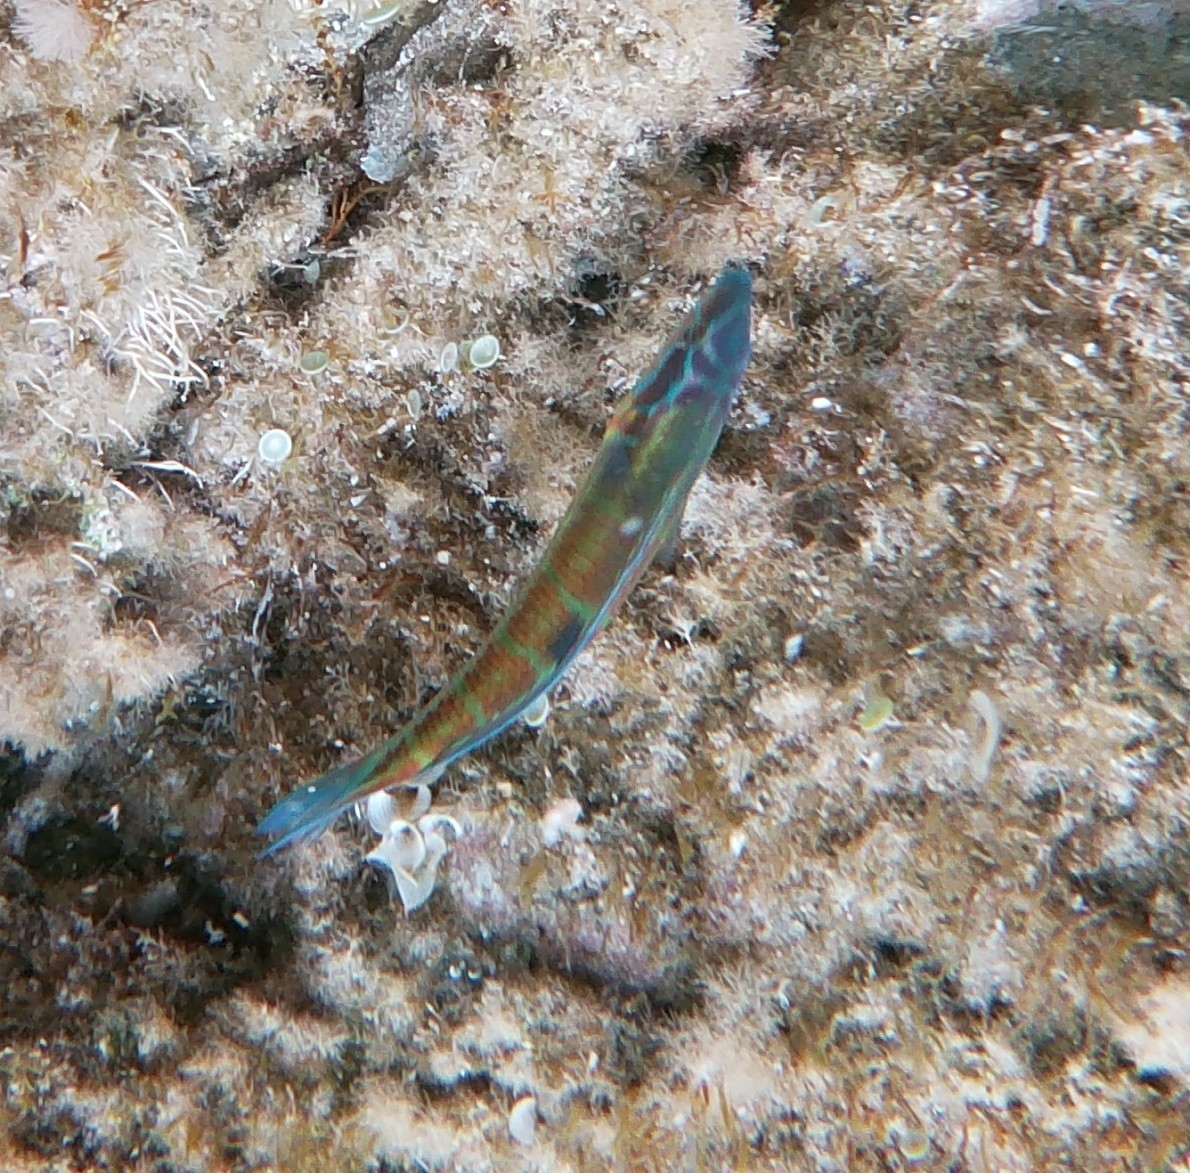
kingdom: Animalia
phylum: Chordata
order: Perciformes
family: Labridae
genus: Thalassoma
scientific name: Thalassoma pavo
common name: Ornate wrasse
